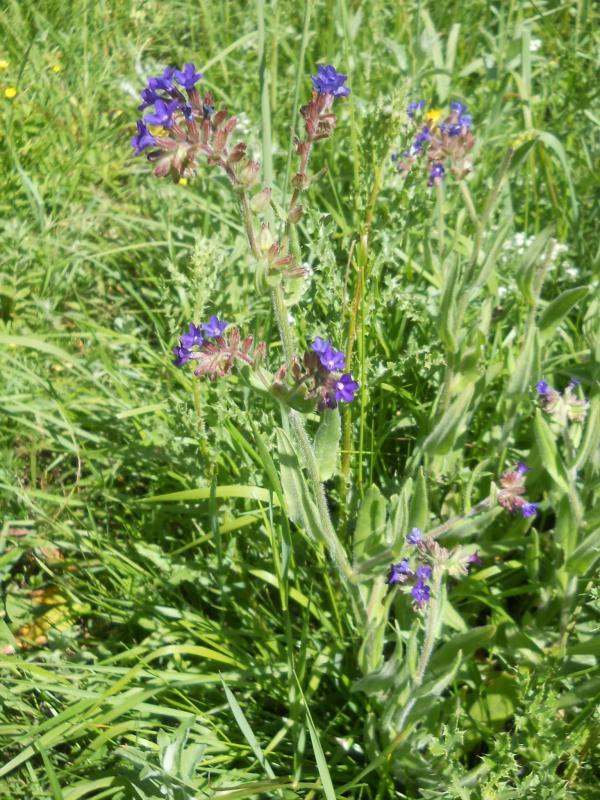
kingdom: Plantae
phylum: Tracheophyta
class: Magnoliopsida
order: Boraginales
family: Boraginaceae
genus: Anchusa
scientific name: Anchusa officinalis
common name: Alkanet
